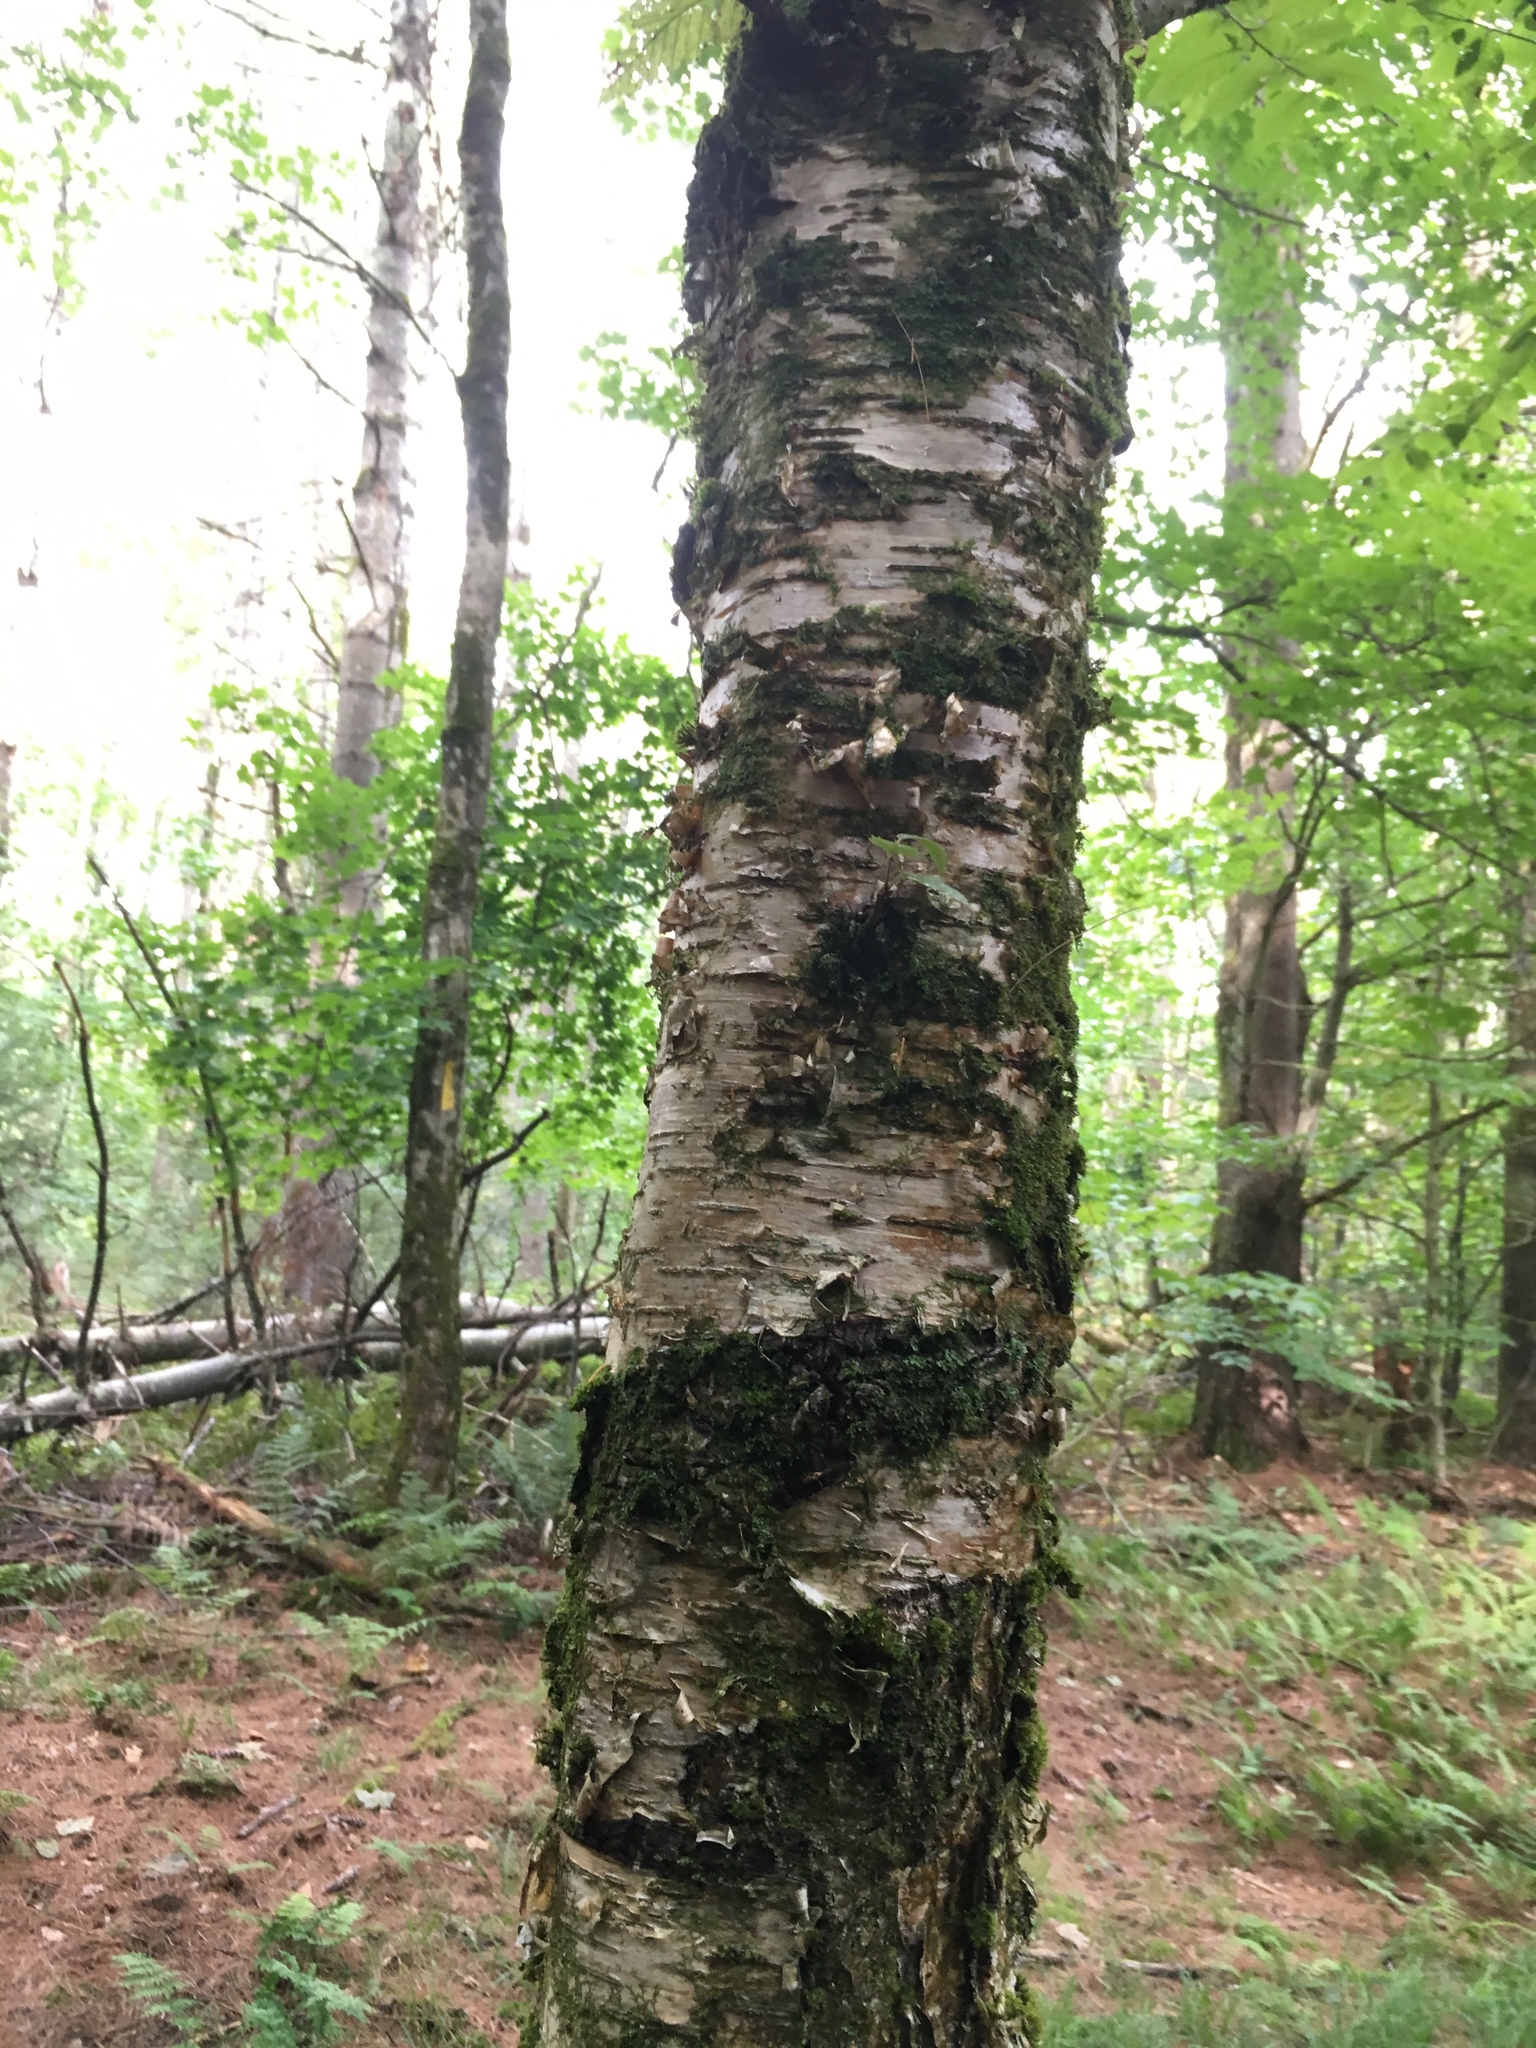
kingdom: Plantae
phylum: Tracheophyta
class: Magnoliopsida
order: Fagales
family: Betulaceae
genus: Betula
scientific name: Betula alleghaniensis
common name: Yellow birch
